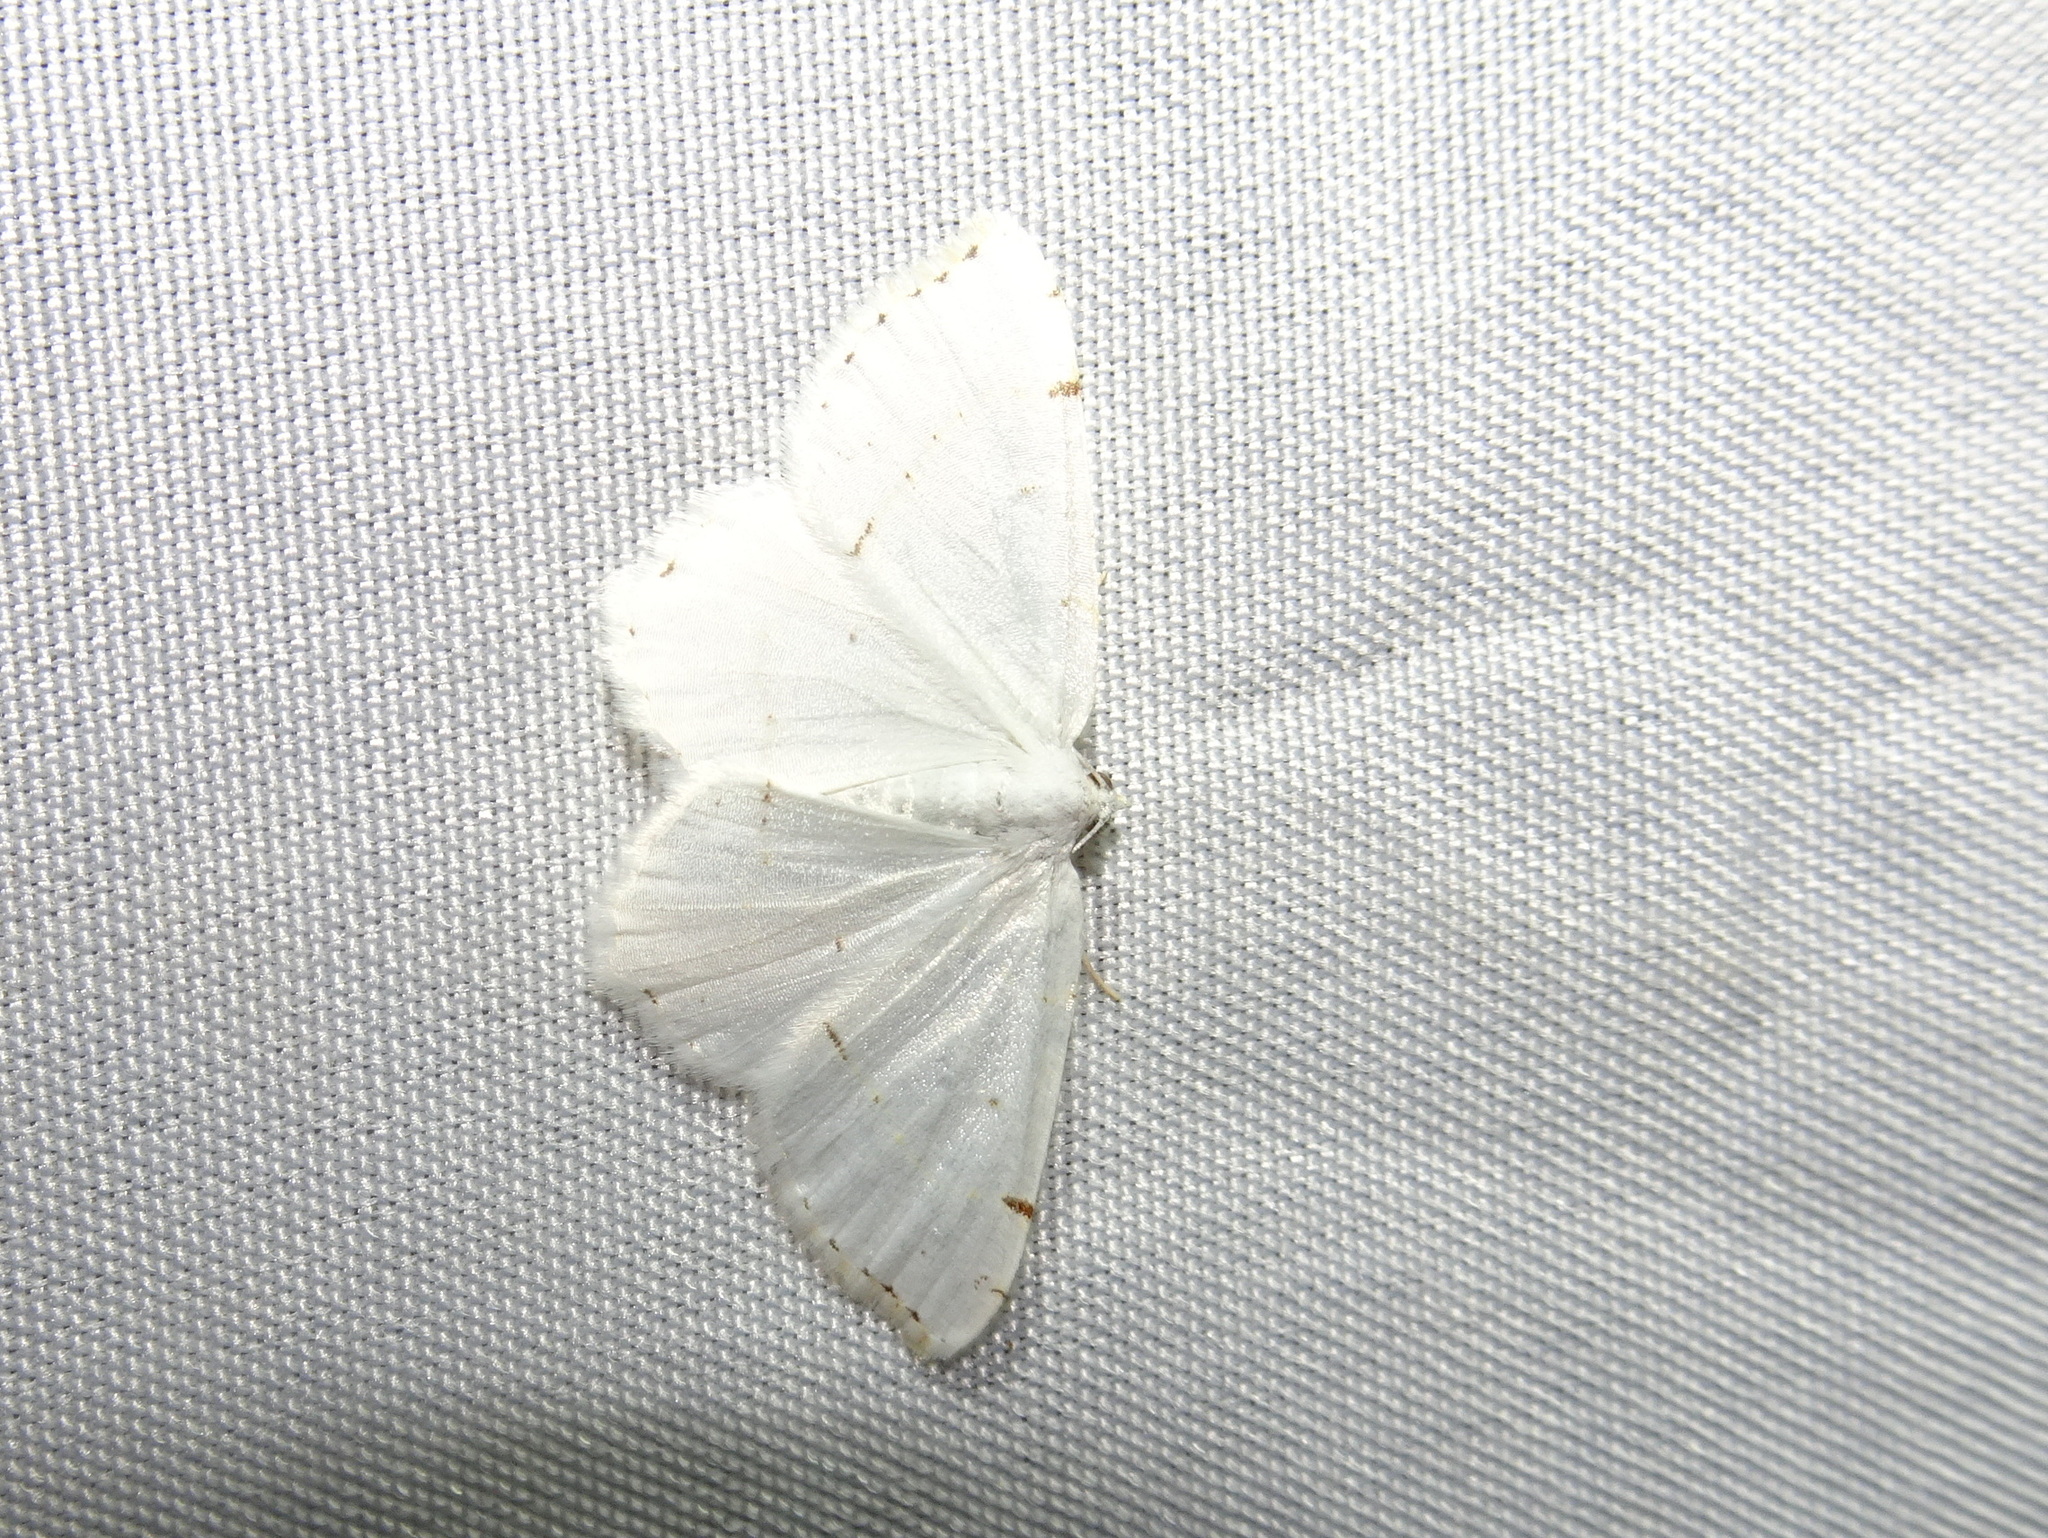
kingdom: Animalia
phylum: Arthropoda
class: Insecta
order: Lepidoptera
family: Geometridae
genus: Macaria
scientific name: Macaria pustularia
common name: Lesser maple spanworm moth
